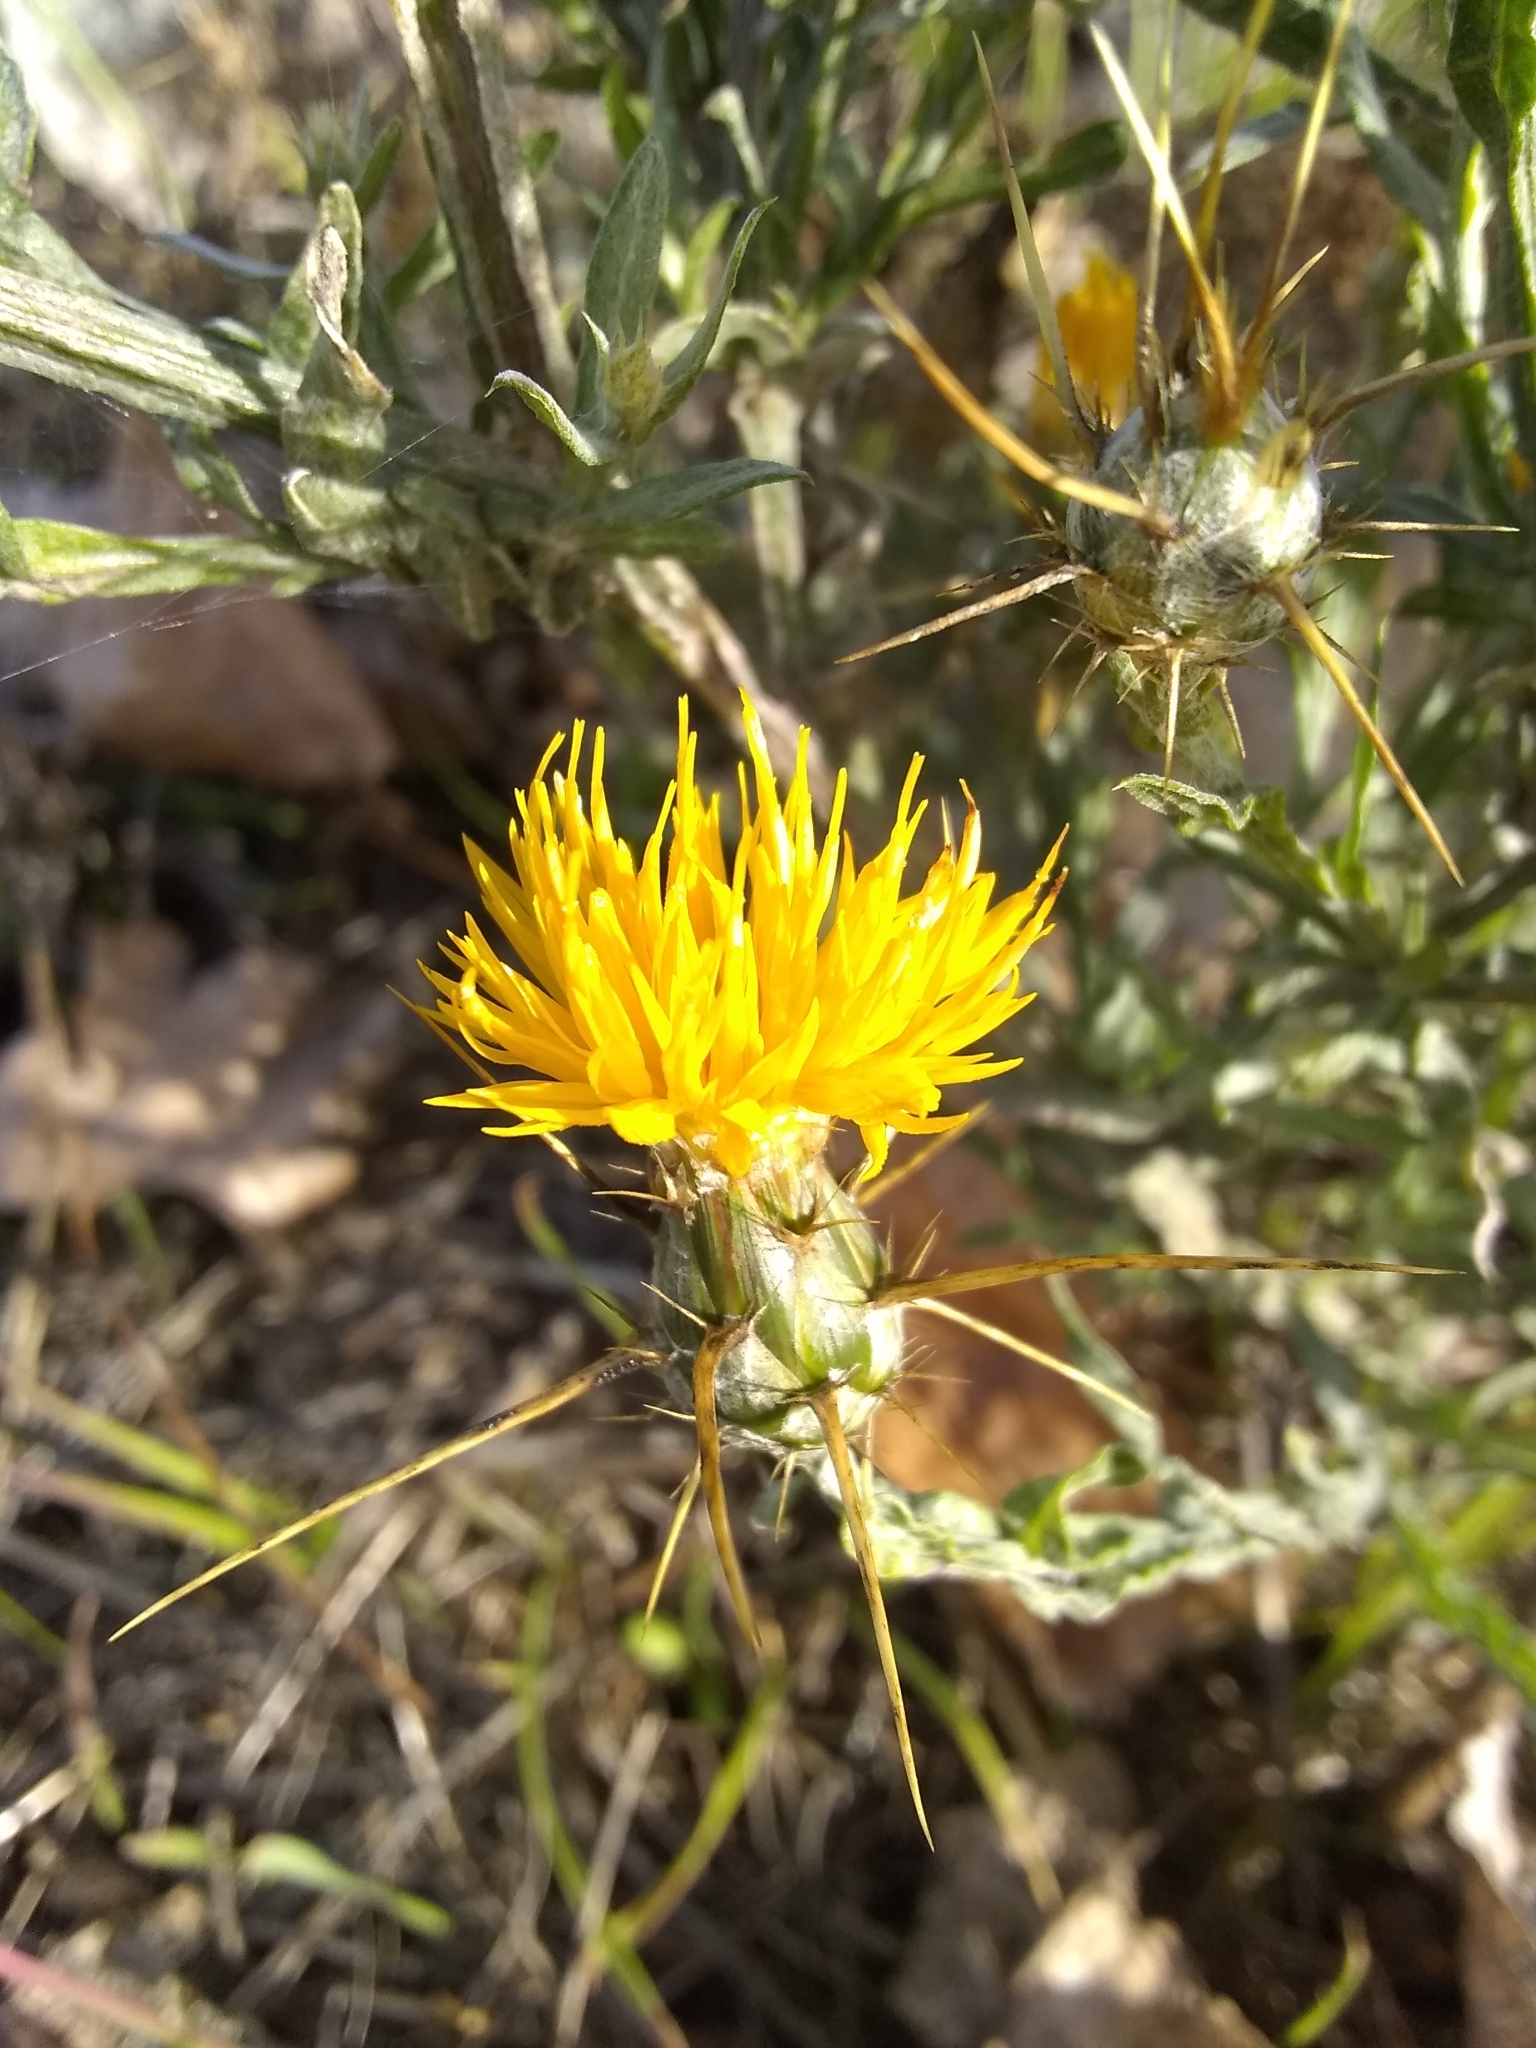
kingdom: Plantae
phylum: Tracheophyta
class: Magnoliopsida
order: Asterales
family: Asteraceae
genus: Centaurea
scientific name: Centaurea solstitialis
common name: Yellow star-thistle
